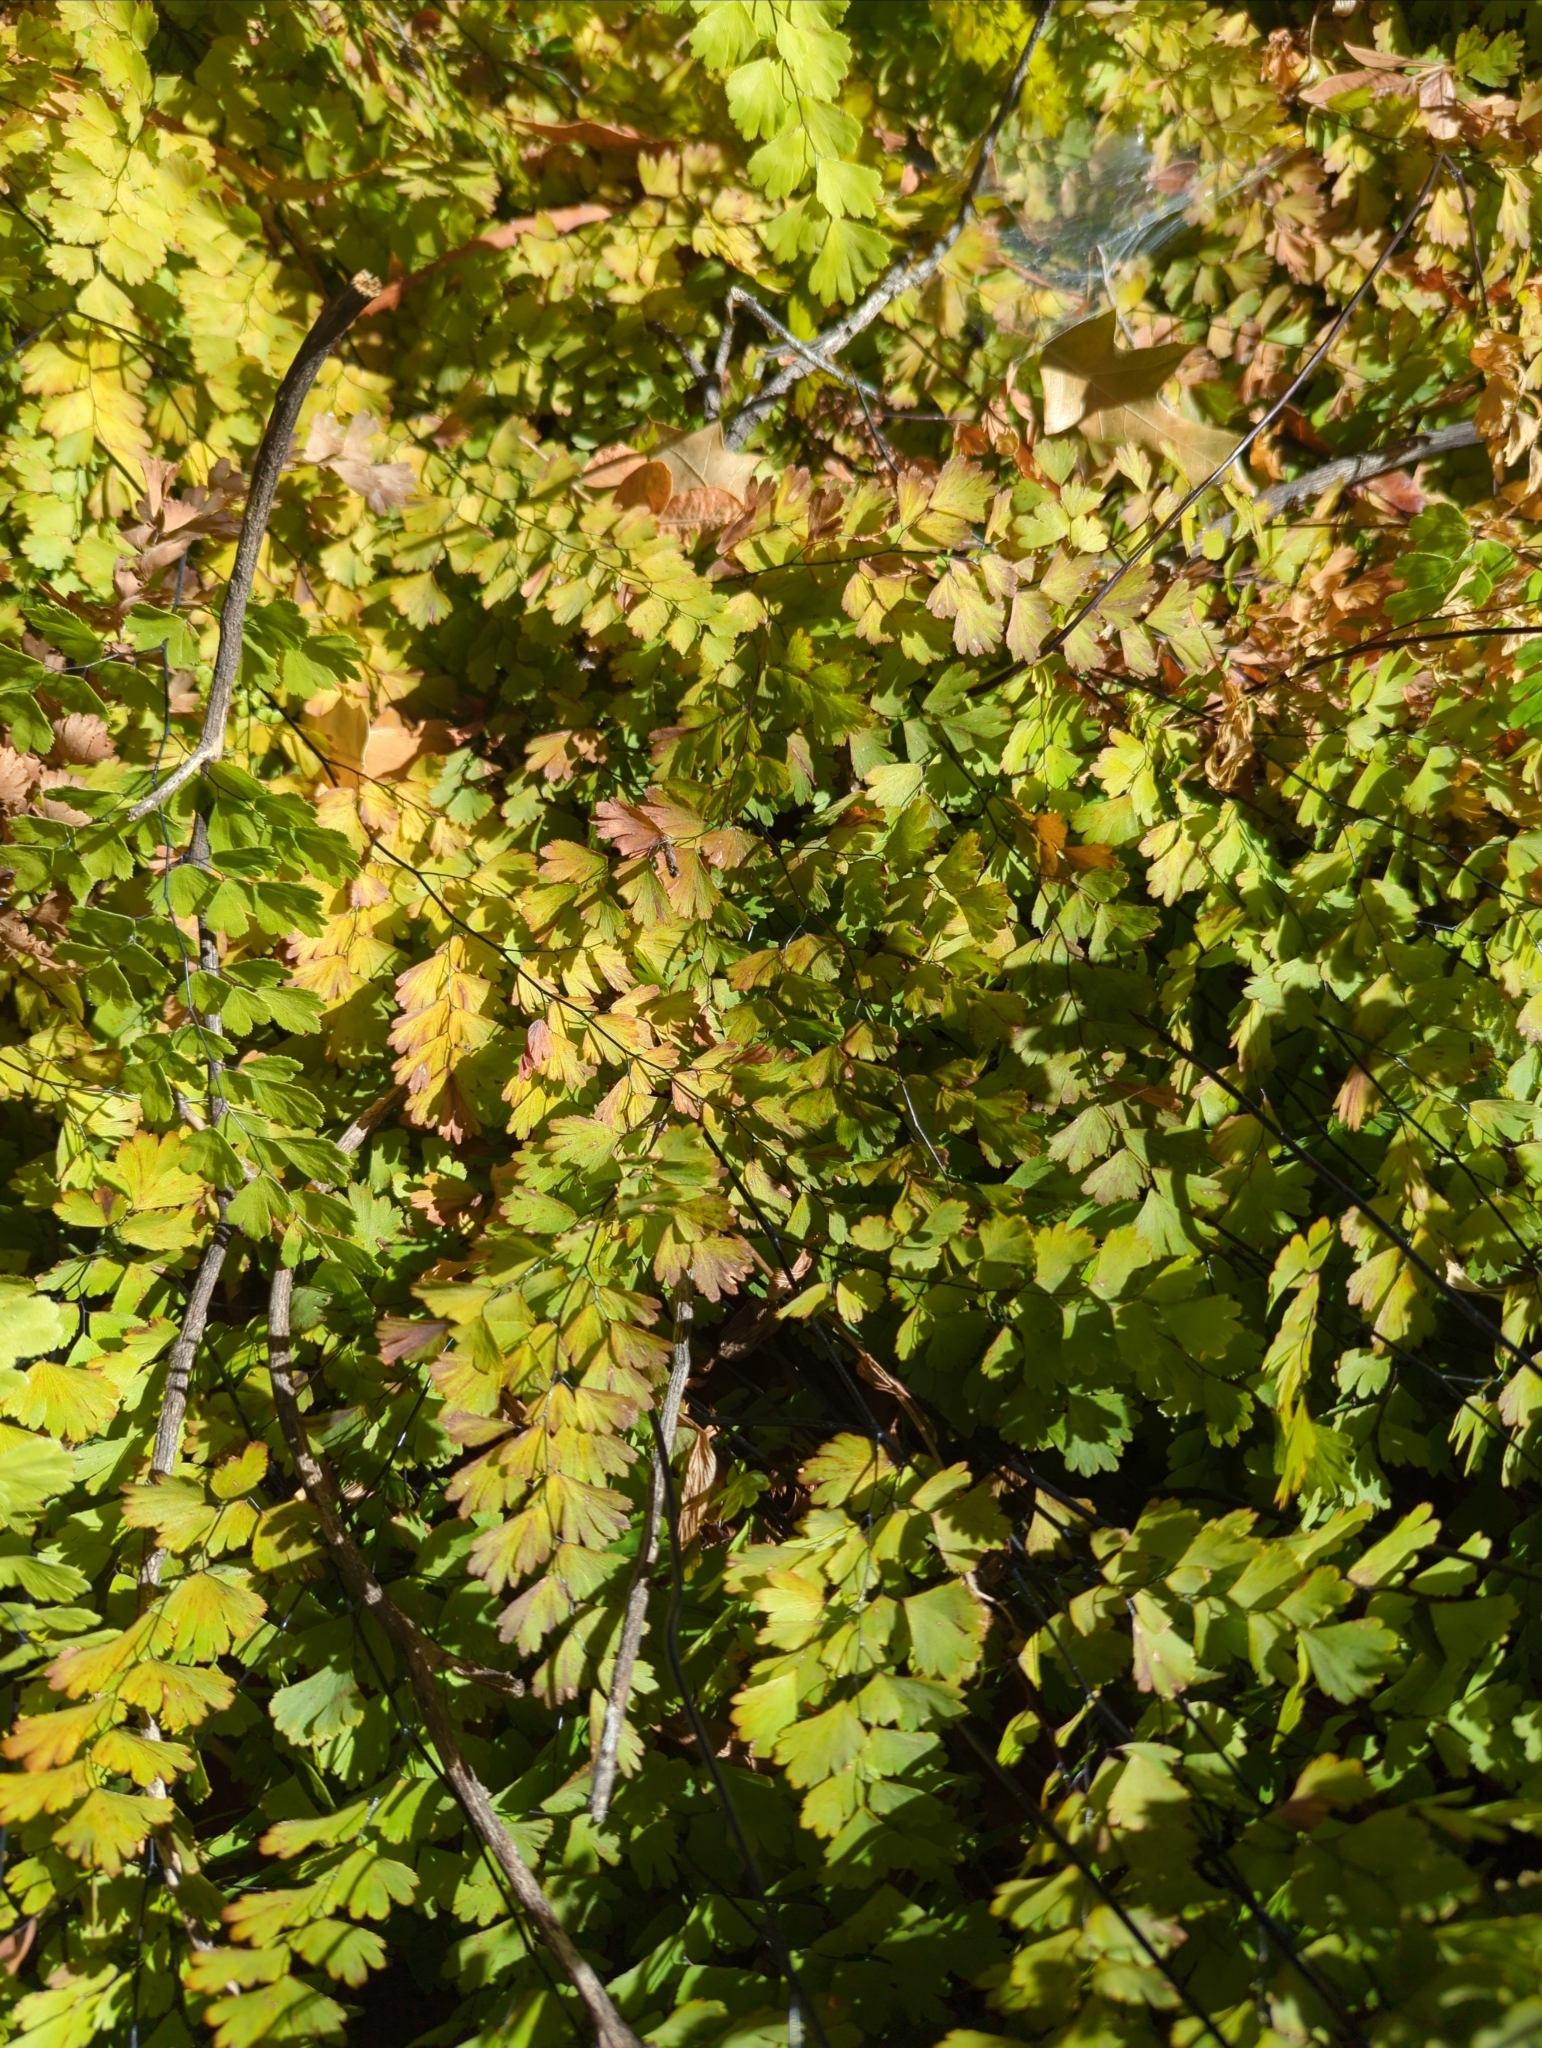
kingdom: Plantae
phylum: Tracheophyta
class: Polypodiopsida
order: Polypodiales
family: Pteridaceae
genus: Adiantum
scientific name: Adiantum capillus-veneris
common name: Maidenhair fern
